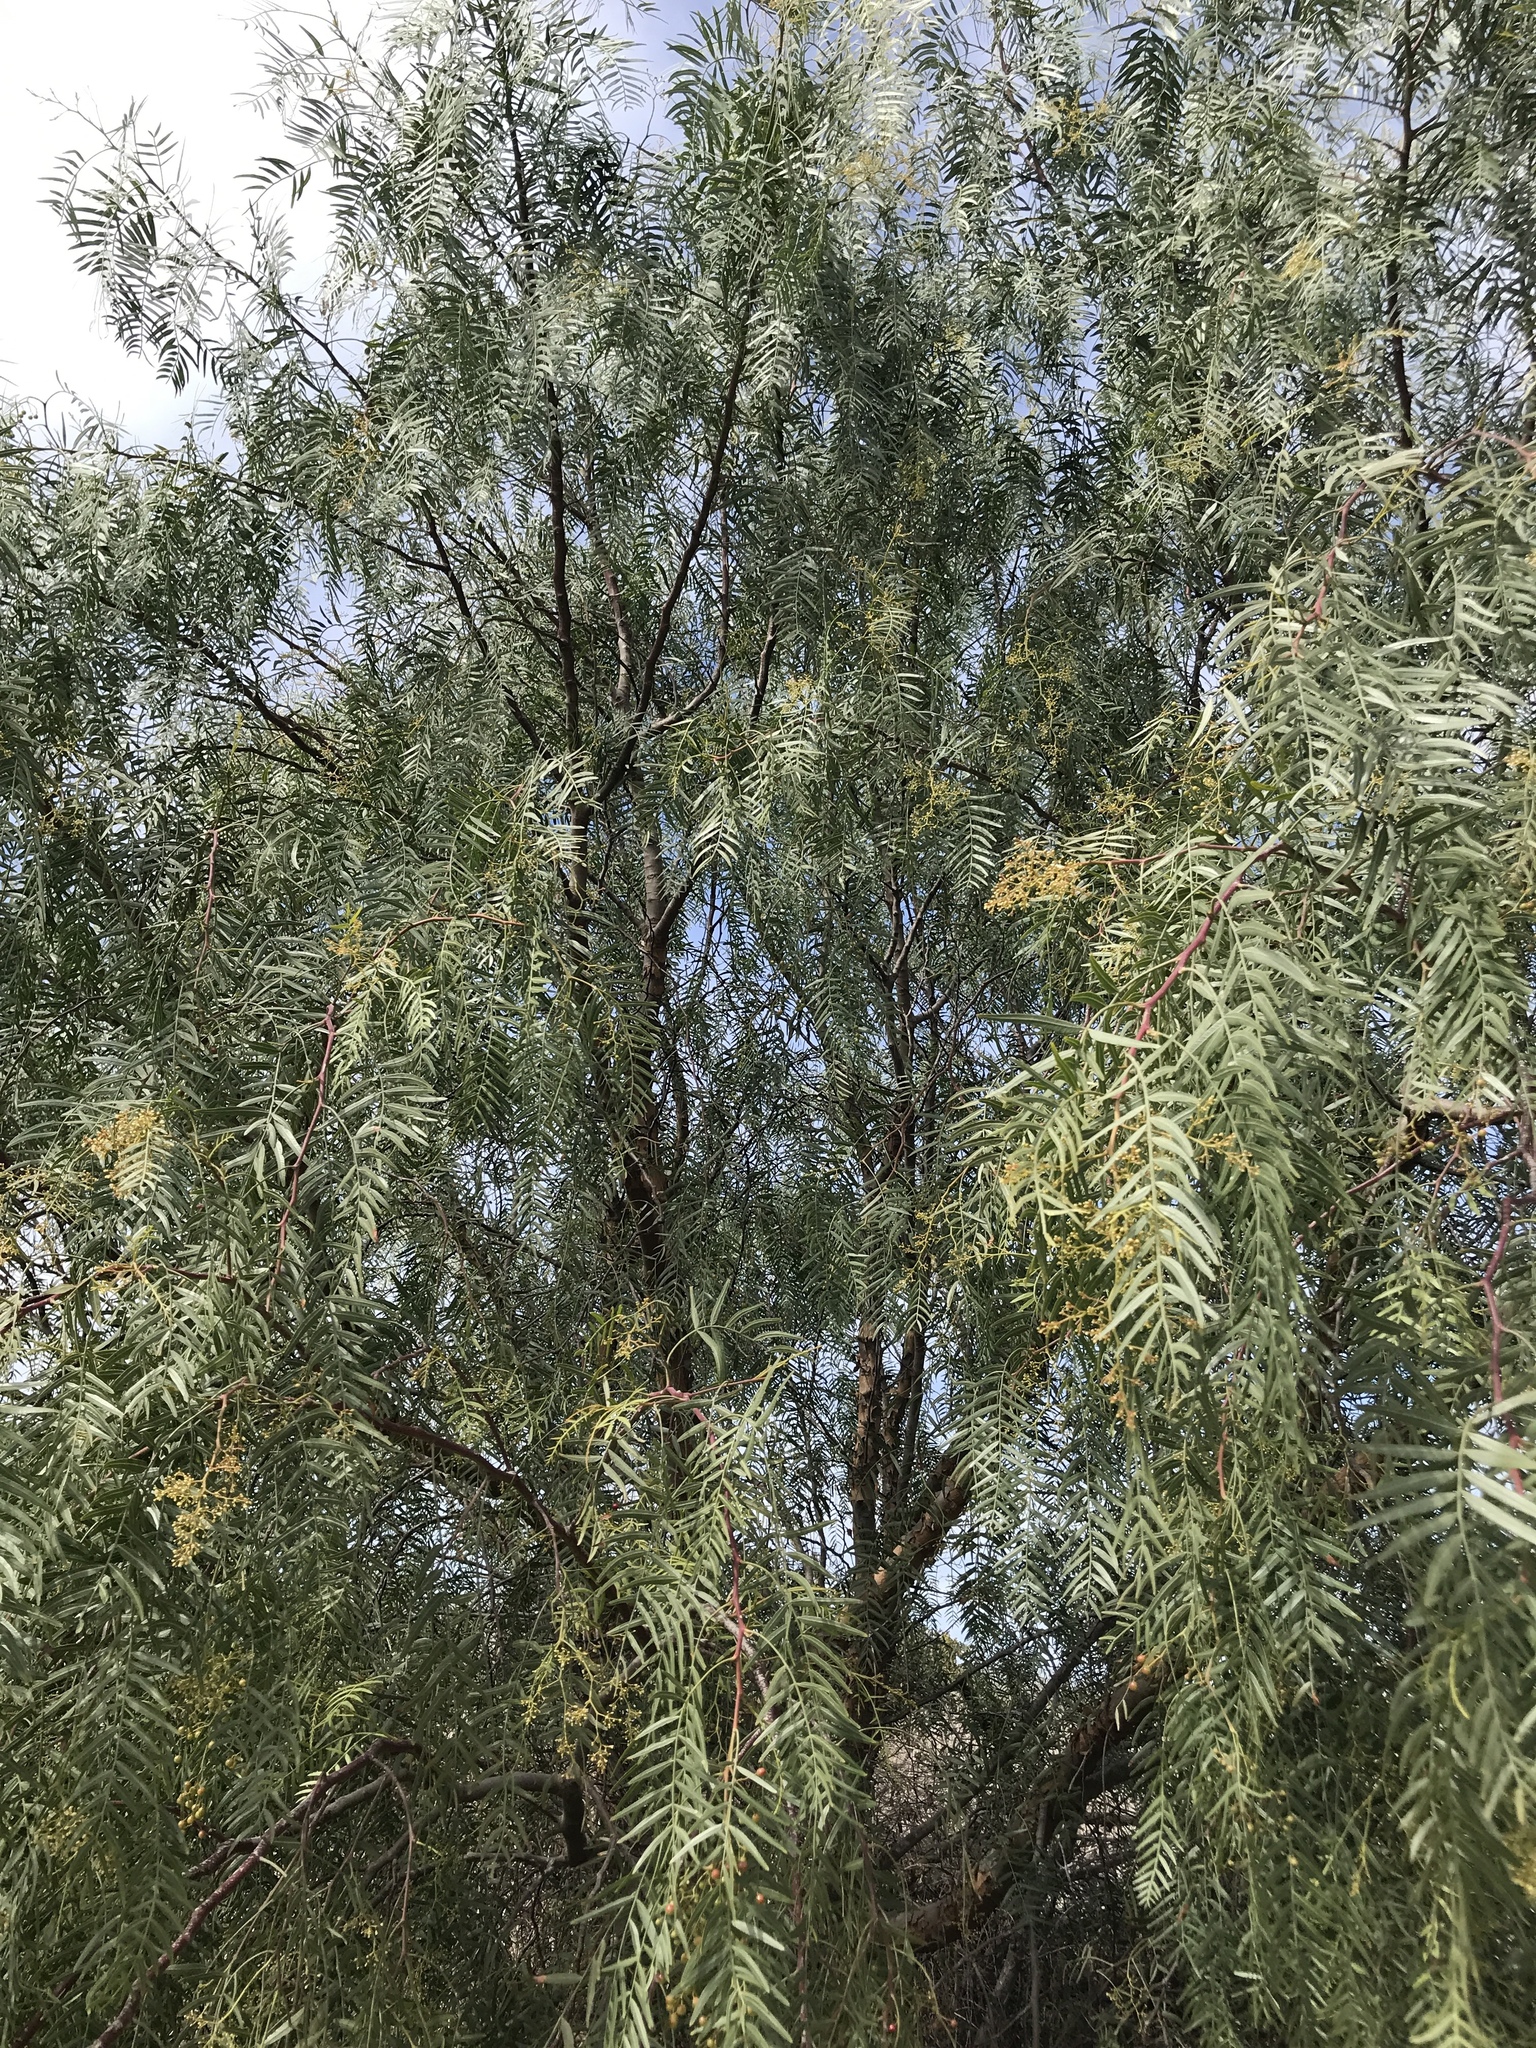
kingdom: Plantae
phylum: Tracheophyta
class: Magnoliopsida
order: Sapindales
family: Anacardiaceae
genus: Schinus
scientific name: Schinus molle
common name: Peruvian peppertree
